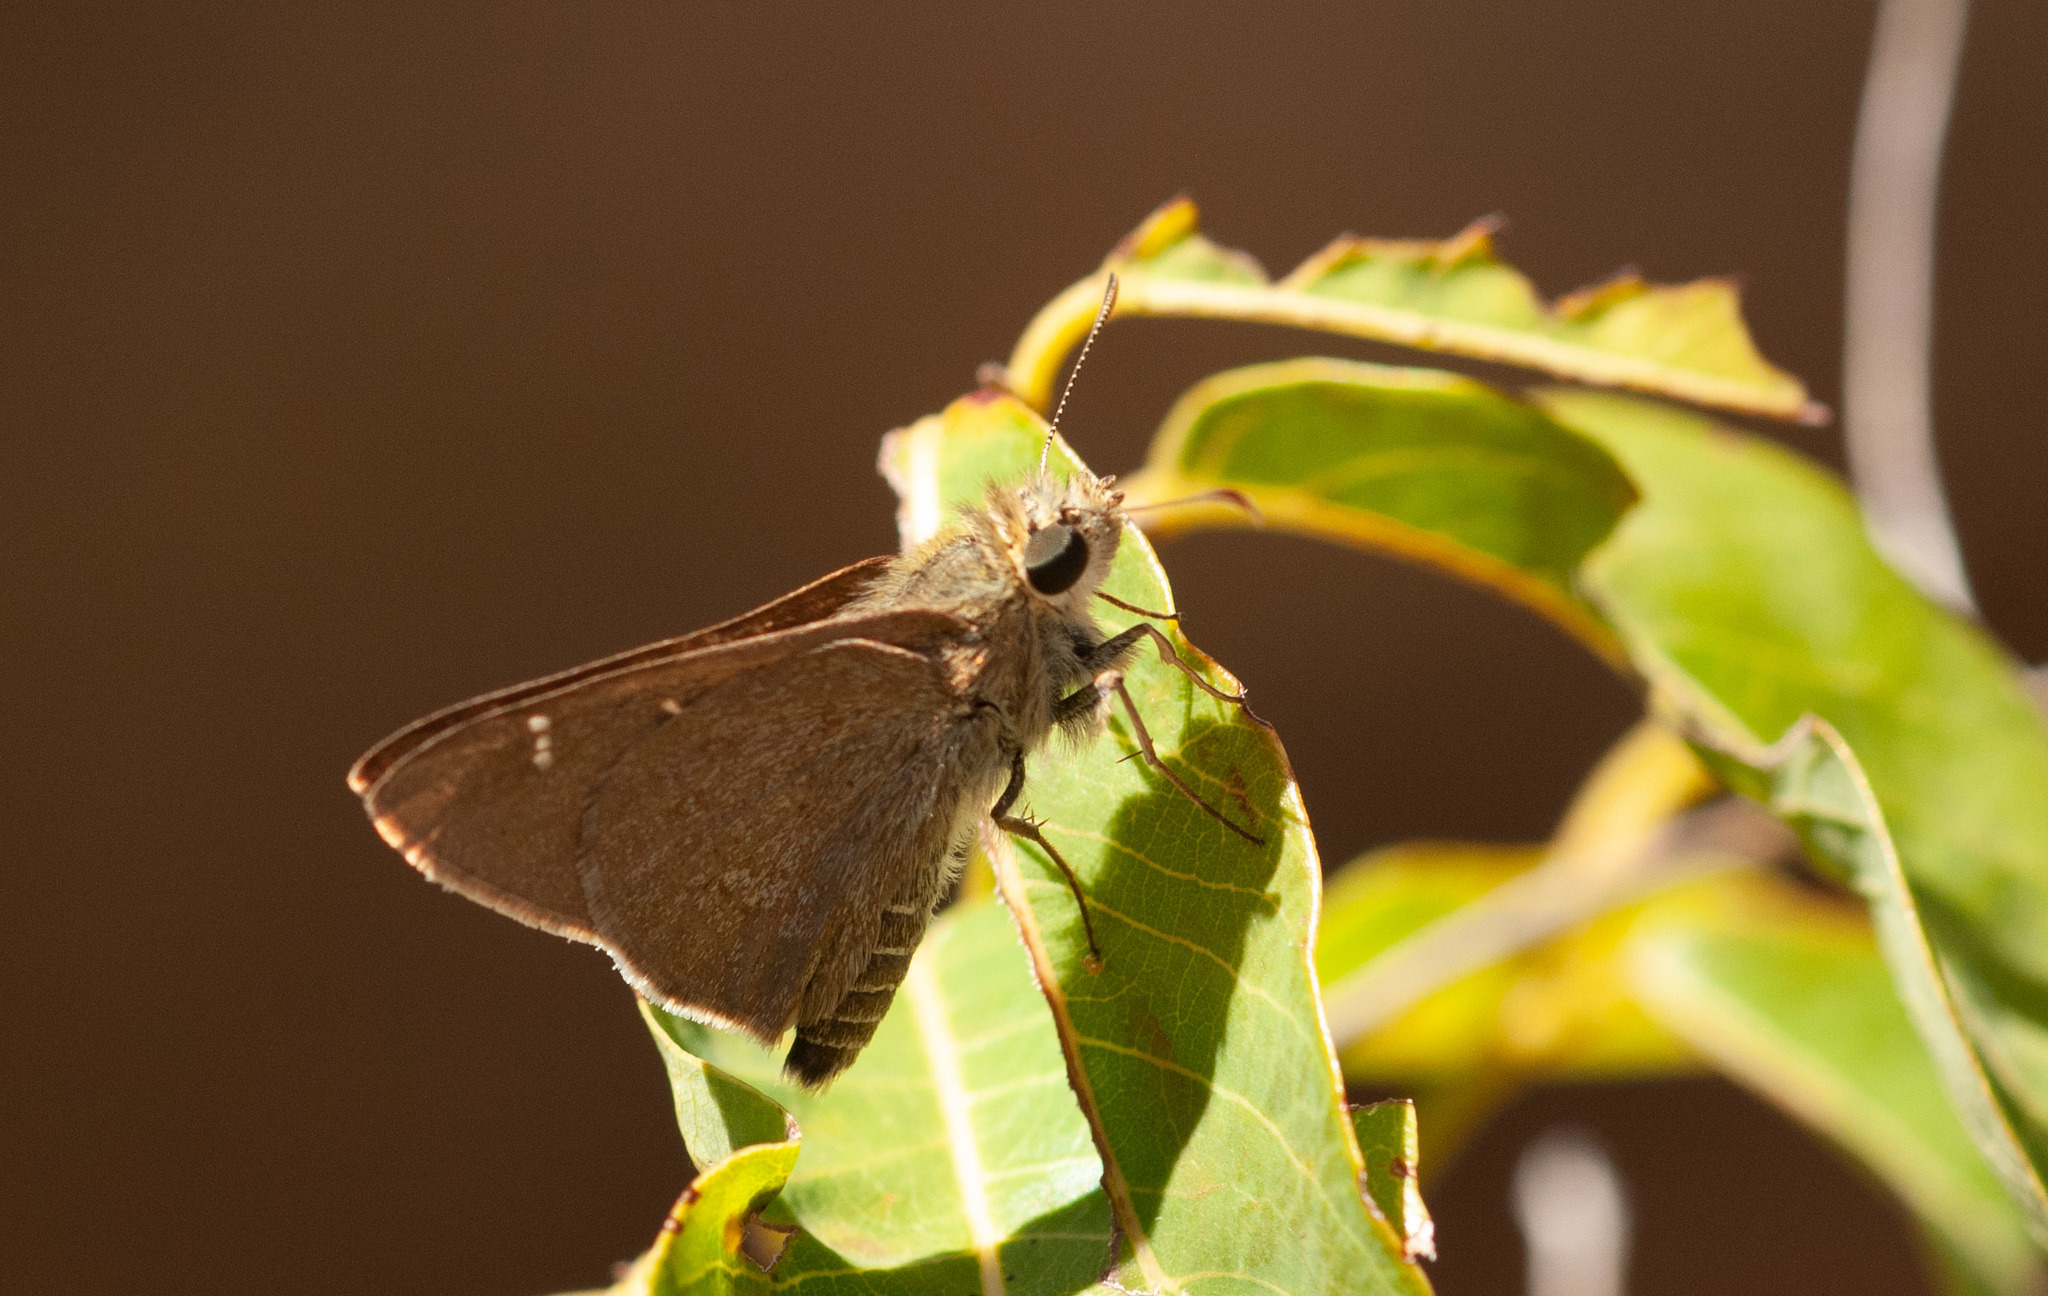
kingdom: Animalia
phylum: Arthropoda
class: Insecta
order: Lepidoptera
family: Hesperiidae
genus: Toxidia
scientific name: Toxidia
